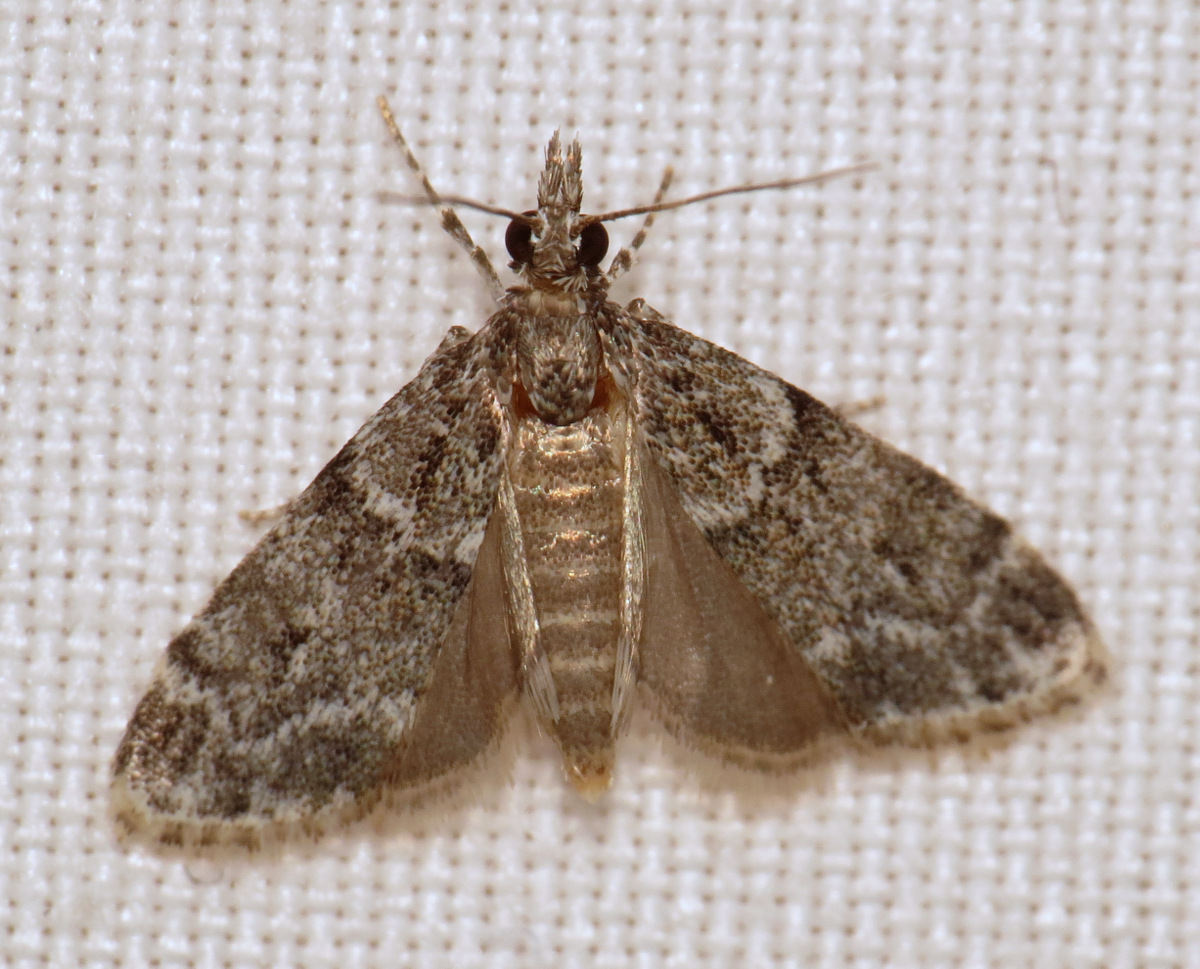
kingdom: Animalia
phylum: Arthropoda
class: Insecta
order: Lepidoptera
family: Crambidae
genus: Scoparia
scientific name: Scoparia biplagialis
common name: Double-striped scoparia moth
